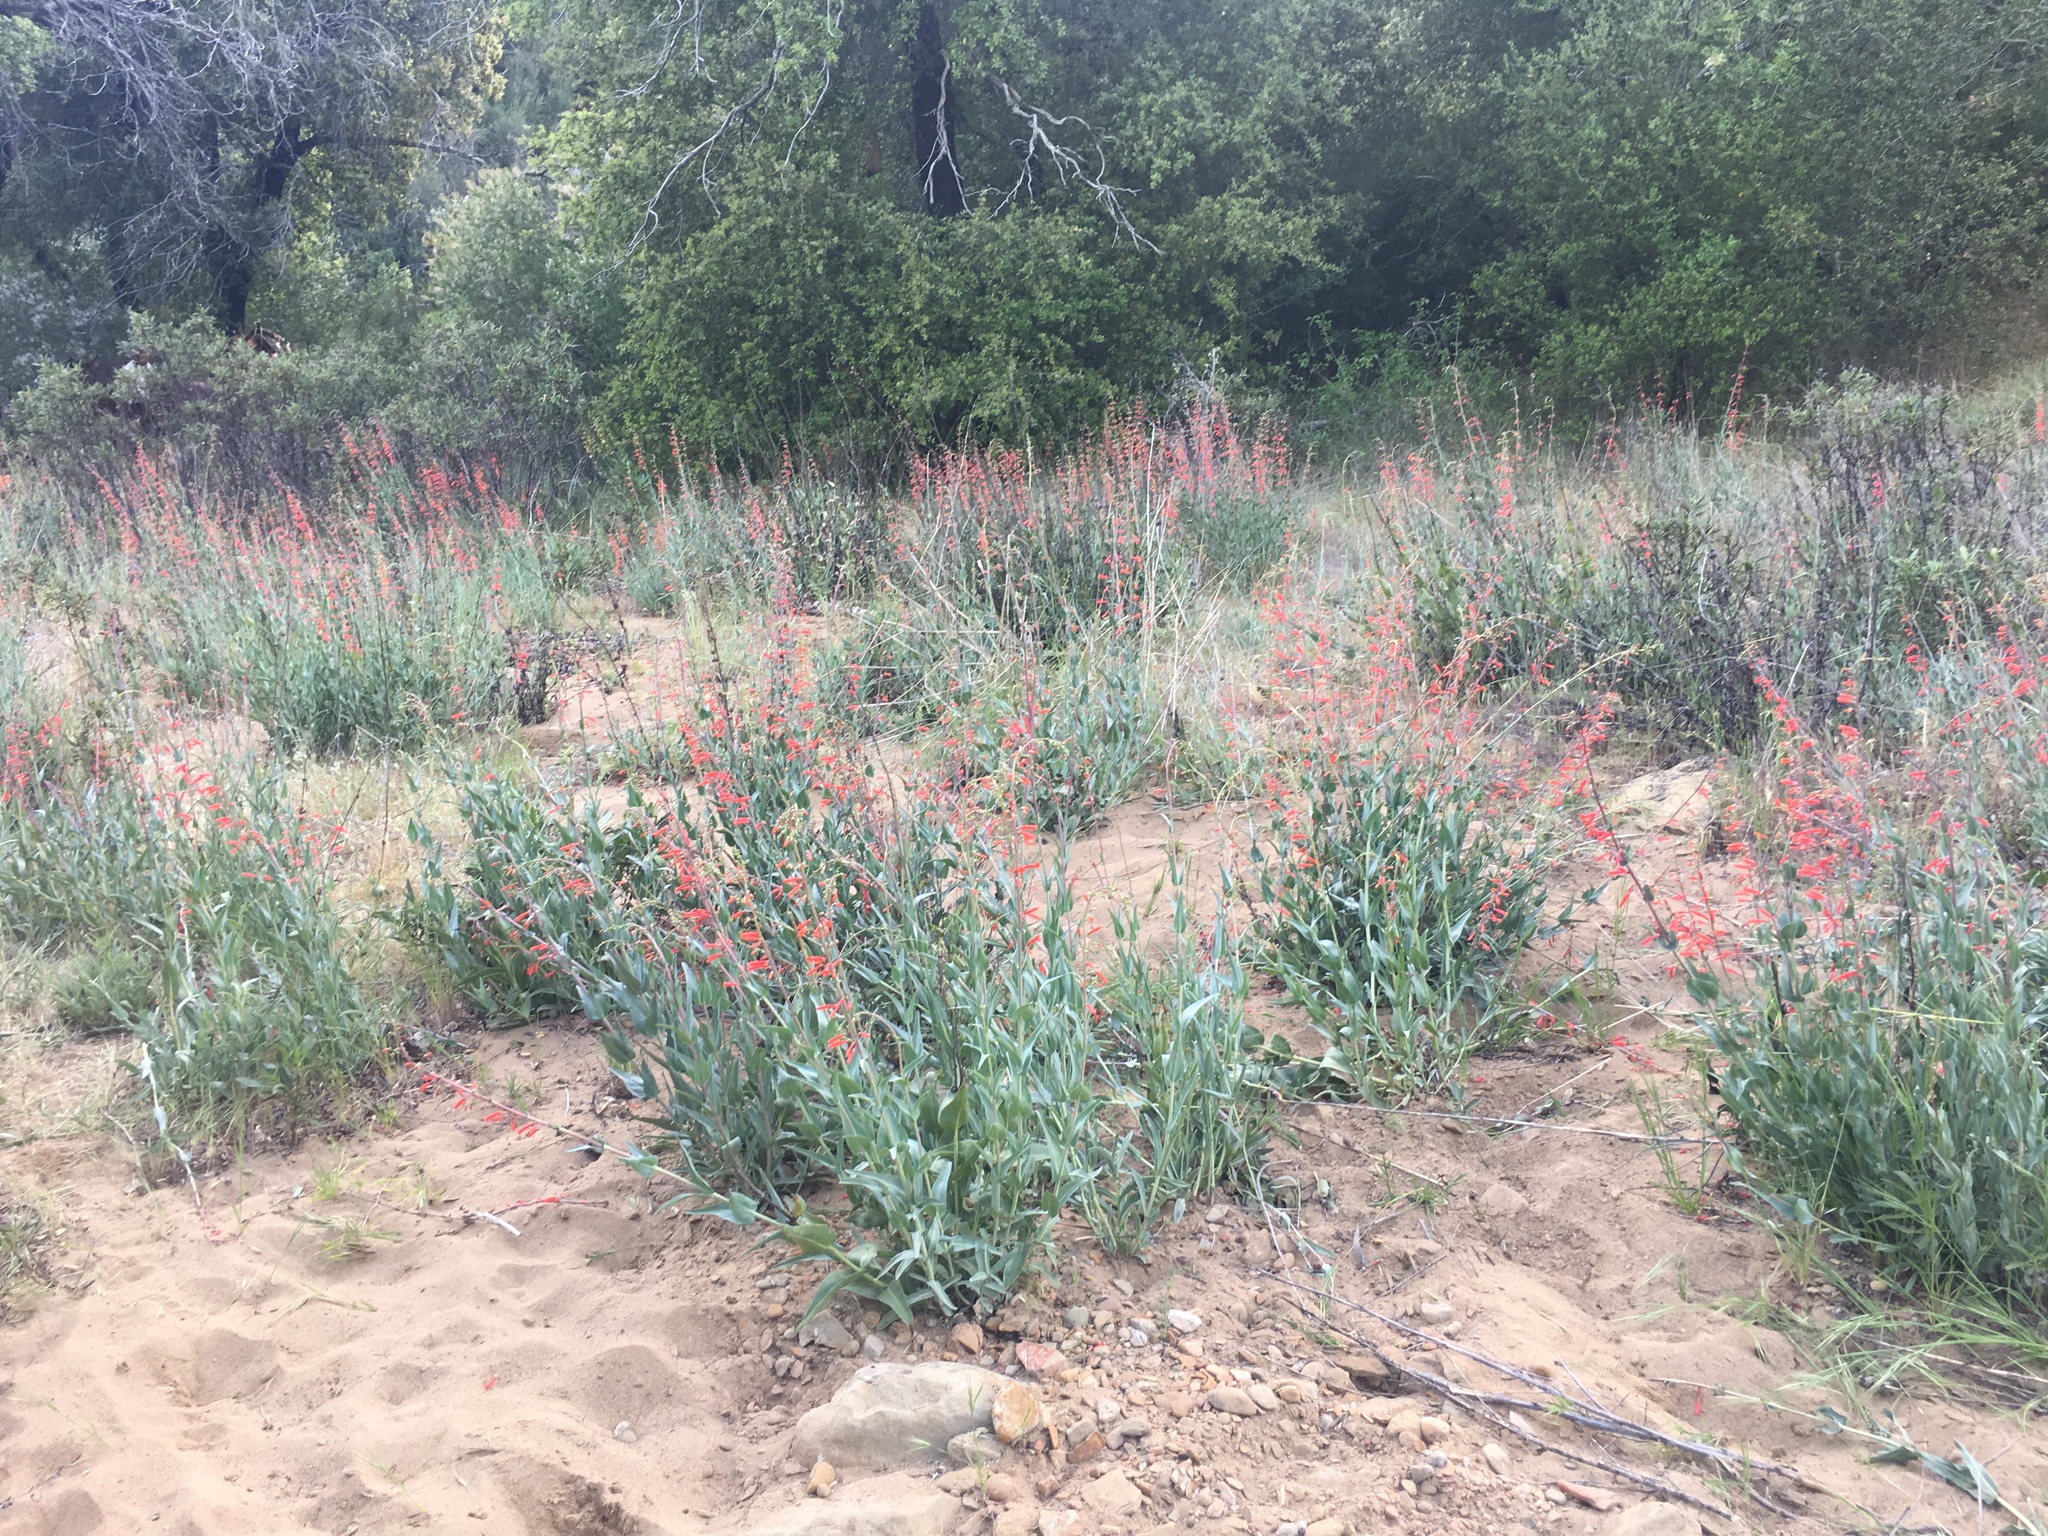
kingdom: Plantae
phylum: Tracheophyta
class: Magnoliopsida
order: Lamiales
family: Plantaginaceae
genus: Penstemon
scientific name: Penstemon centranthifolius
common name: Scarlet bugler
